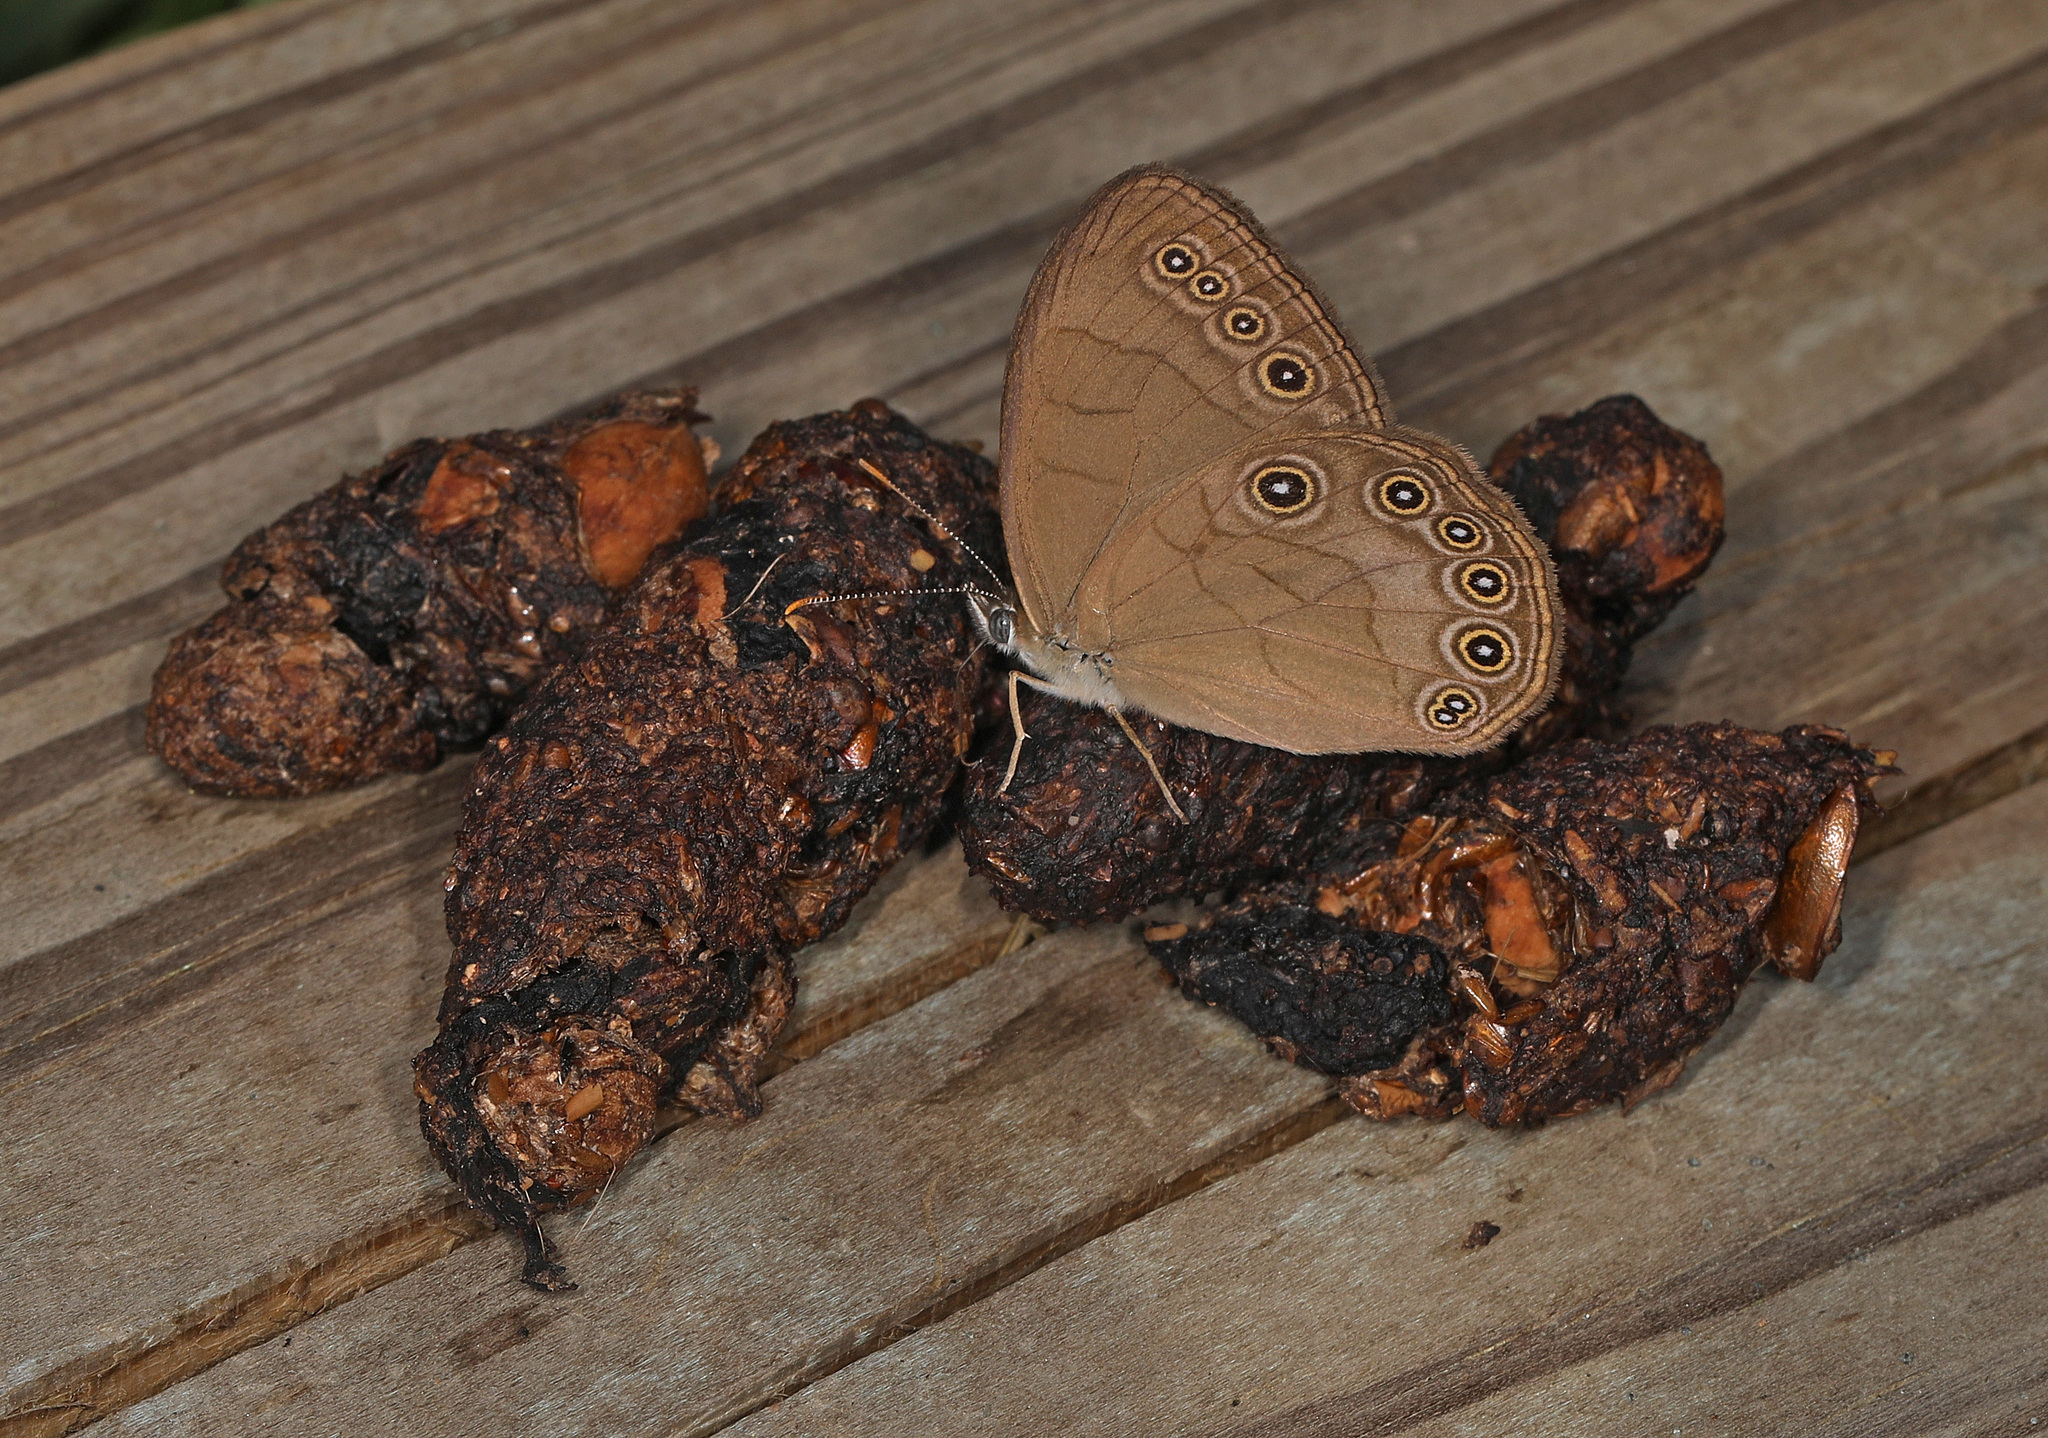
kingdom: Animalia
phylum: Arthropoda
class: Insecta
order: Lepidoptera
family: Nymphalidae
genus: Lethe
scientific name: Lethe eurydice
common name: Eyed brown
